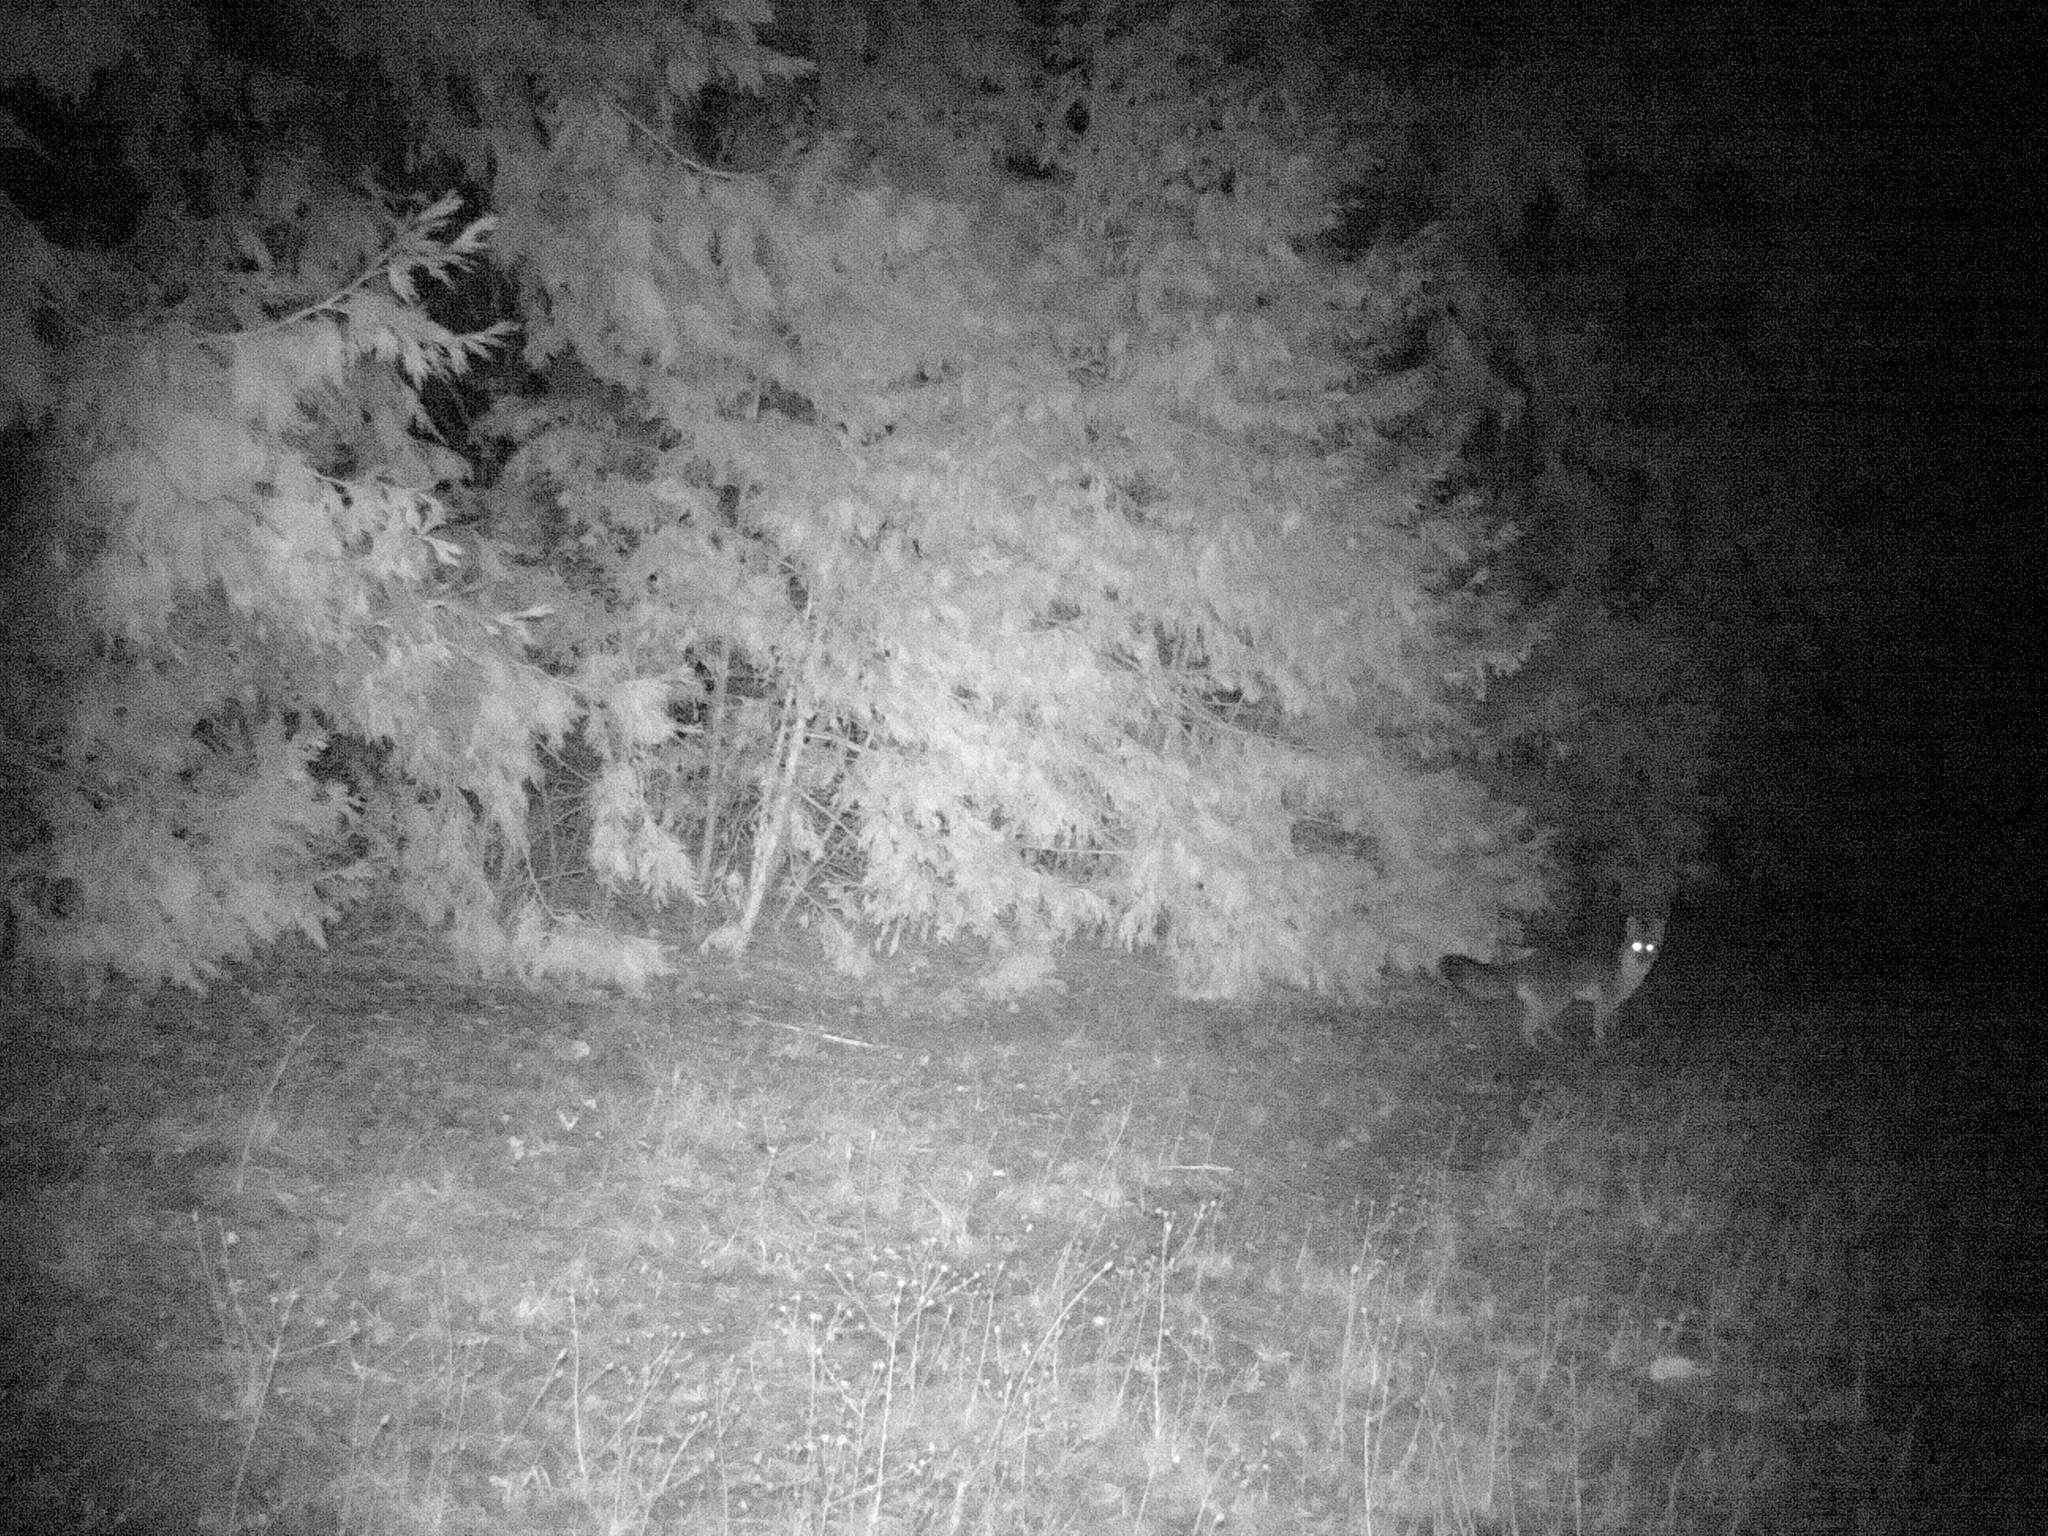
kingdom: Animalia
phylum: Chordata
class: Mammalia
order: Carnivora
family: Canidae
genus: Urocyon
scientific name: Urocyon cinereoargenteus
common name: Gray fox
